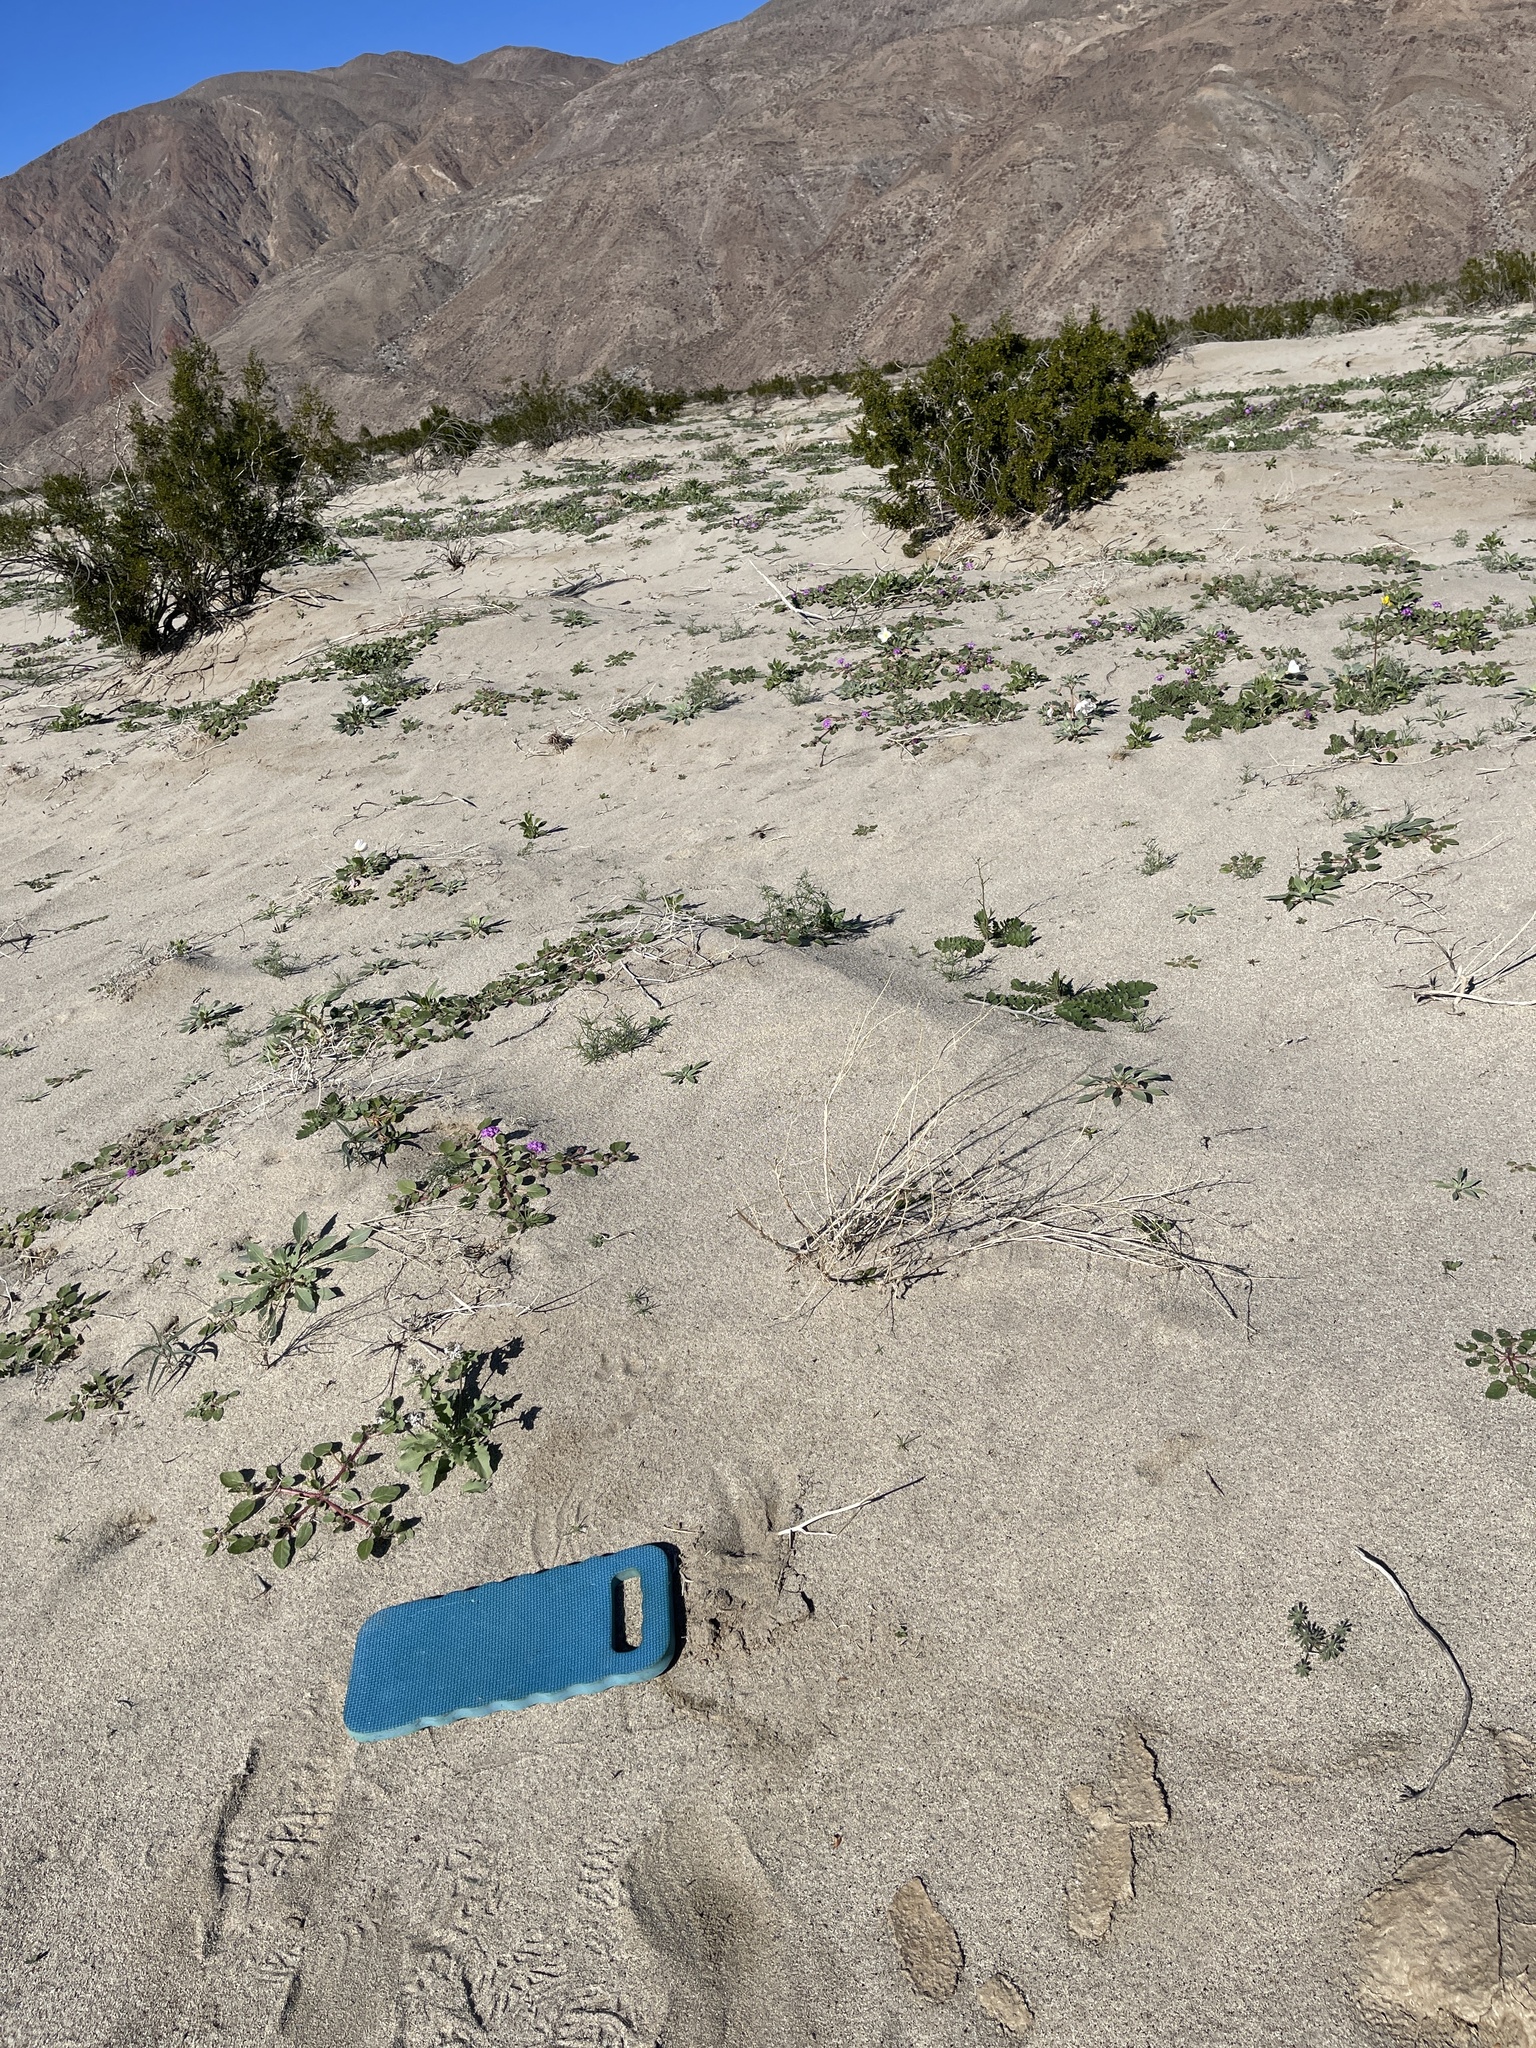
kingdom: Plantae
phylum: Tracheophyta
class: Magnoliopsida
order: Brassicales
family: Brassicaceae
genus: Dithyrea
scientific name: Dithyrea californica
